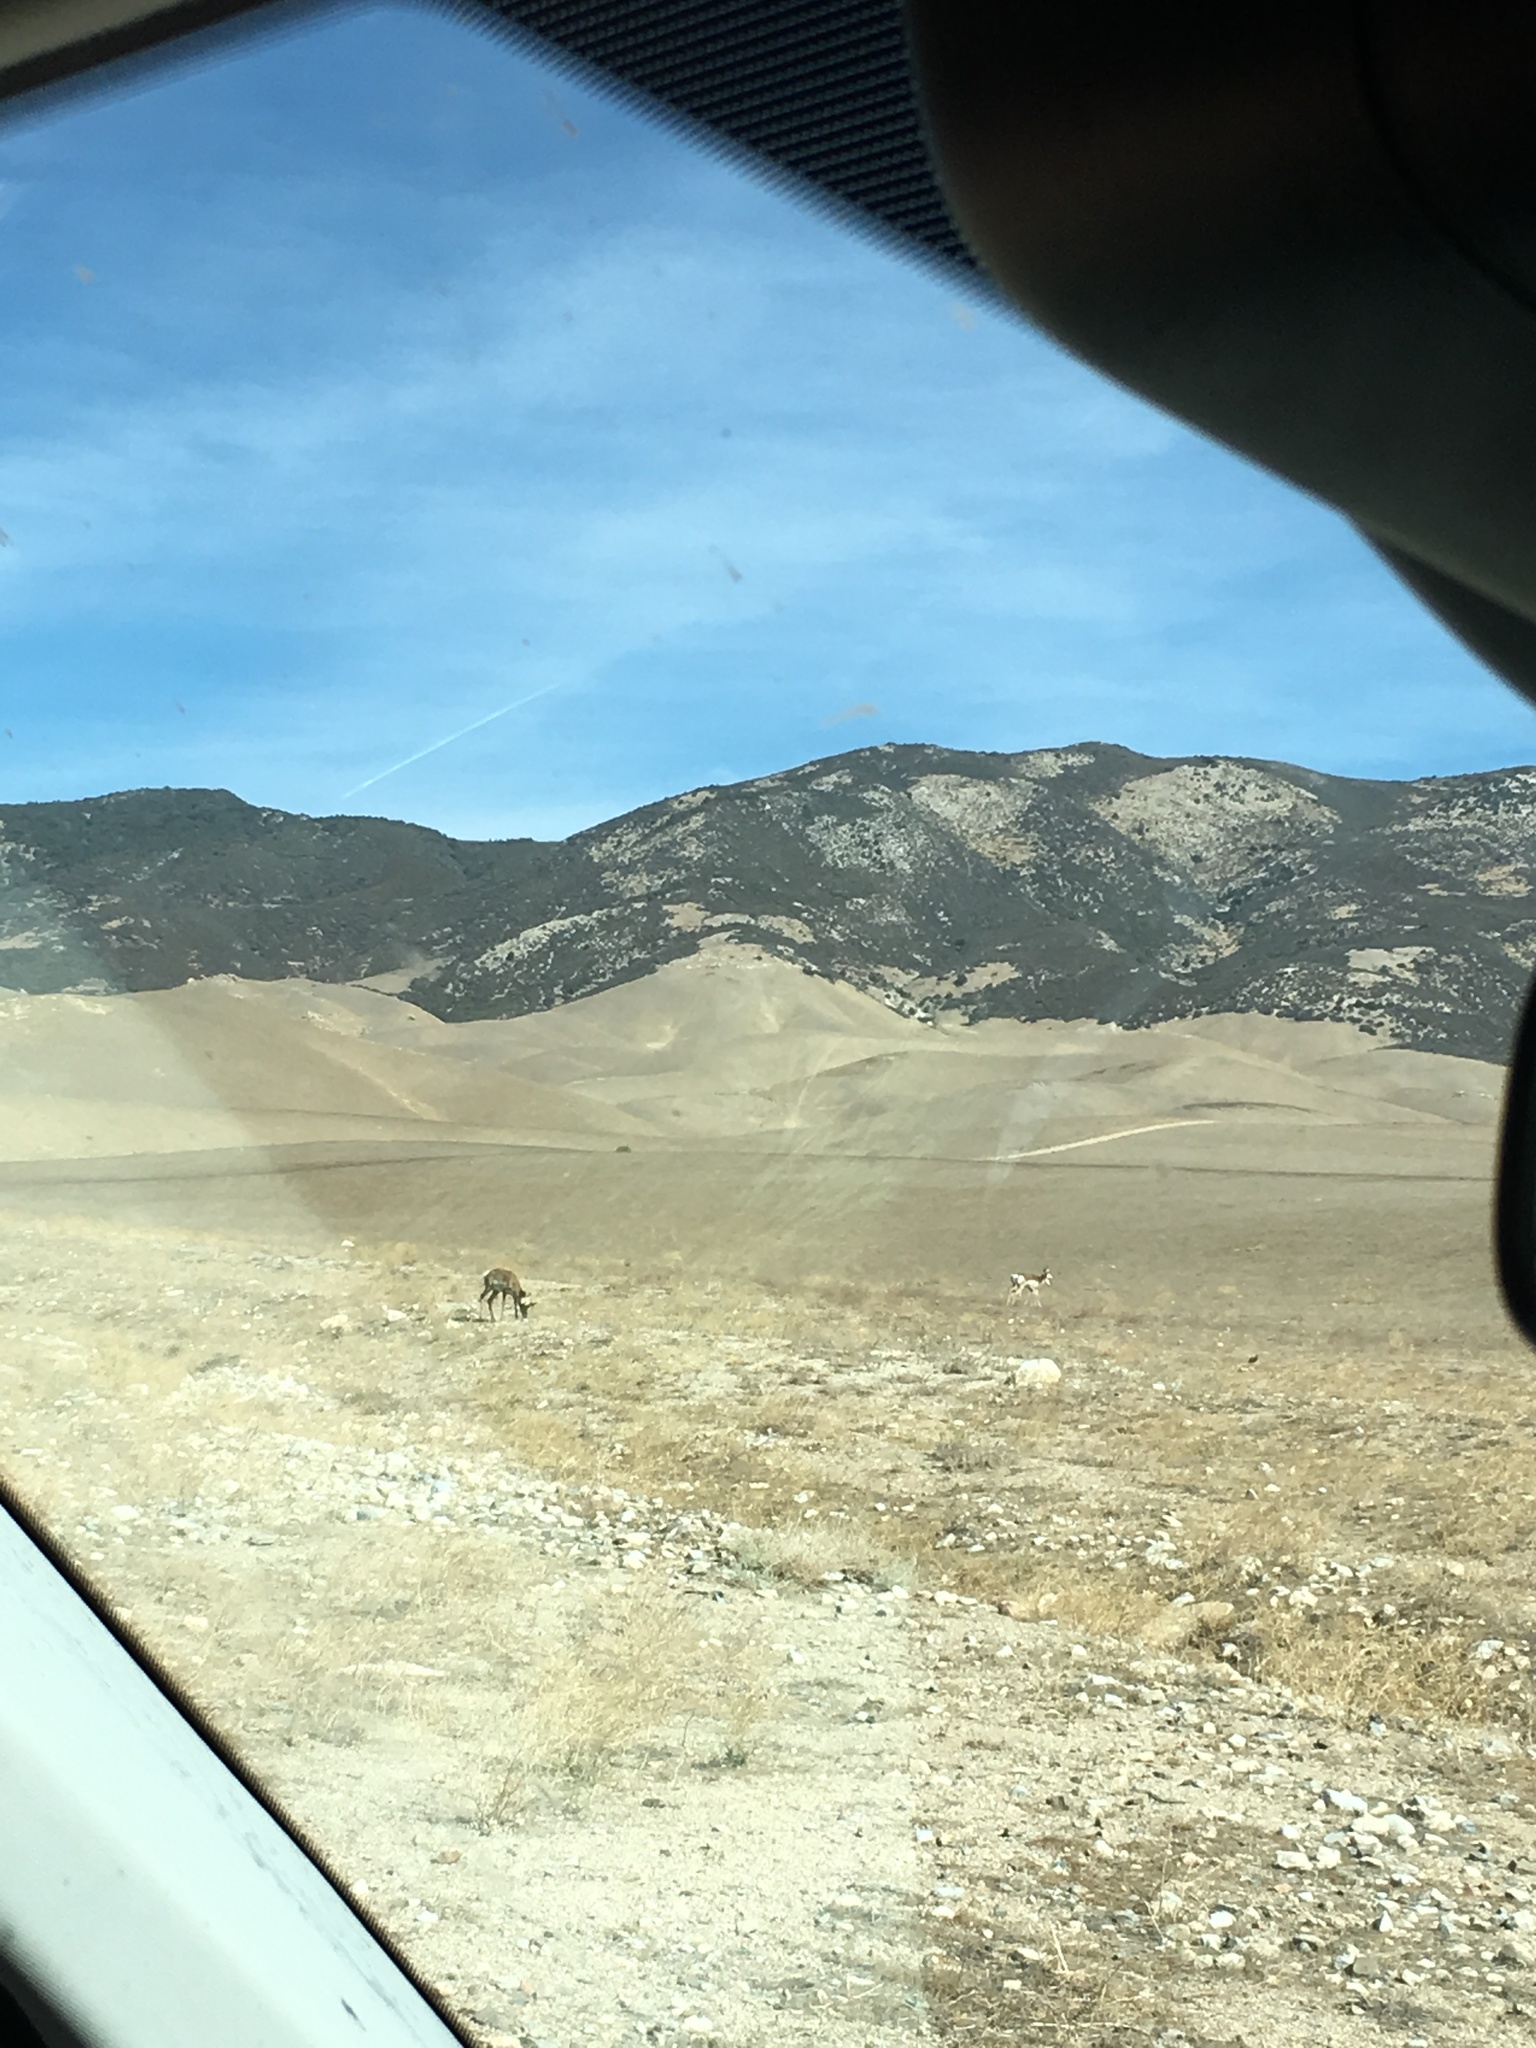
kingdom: Animalia
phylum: Chordata
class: Mammalia
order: Artiodactyla
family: Antilocapridae
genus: Antilocapra
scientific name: Antilocapra americana
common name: Pronghorn
